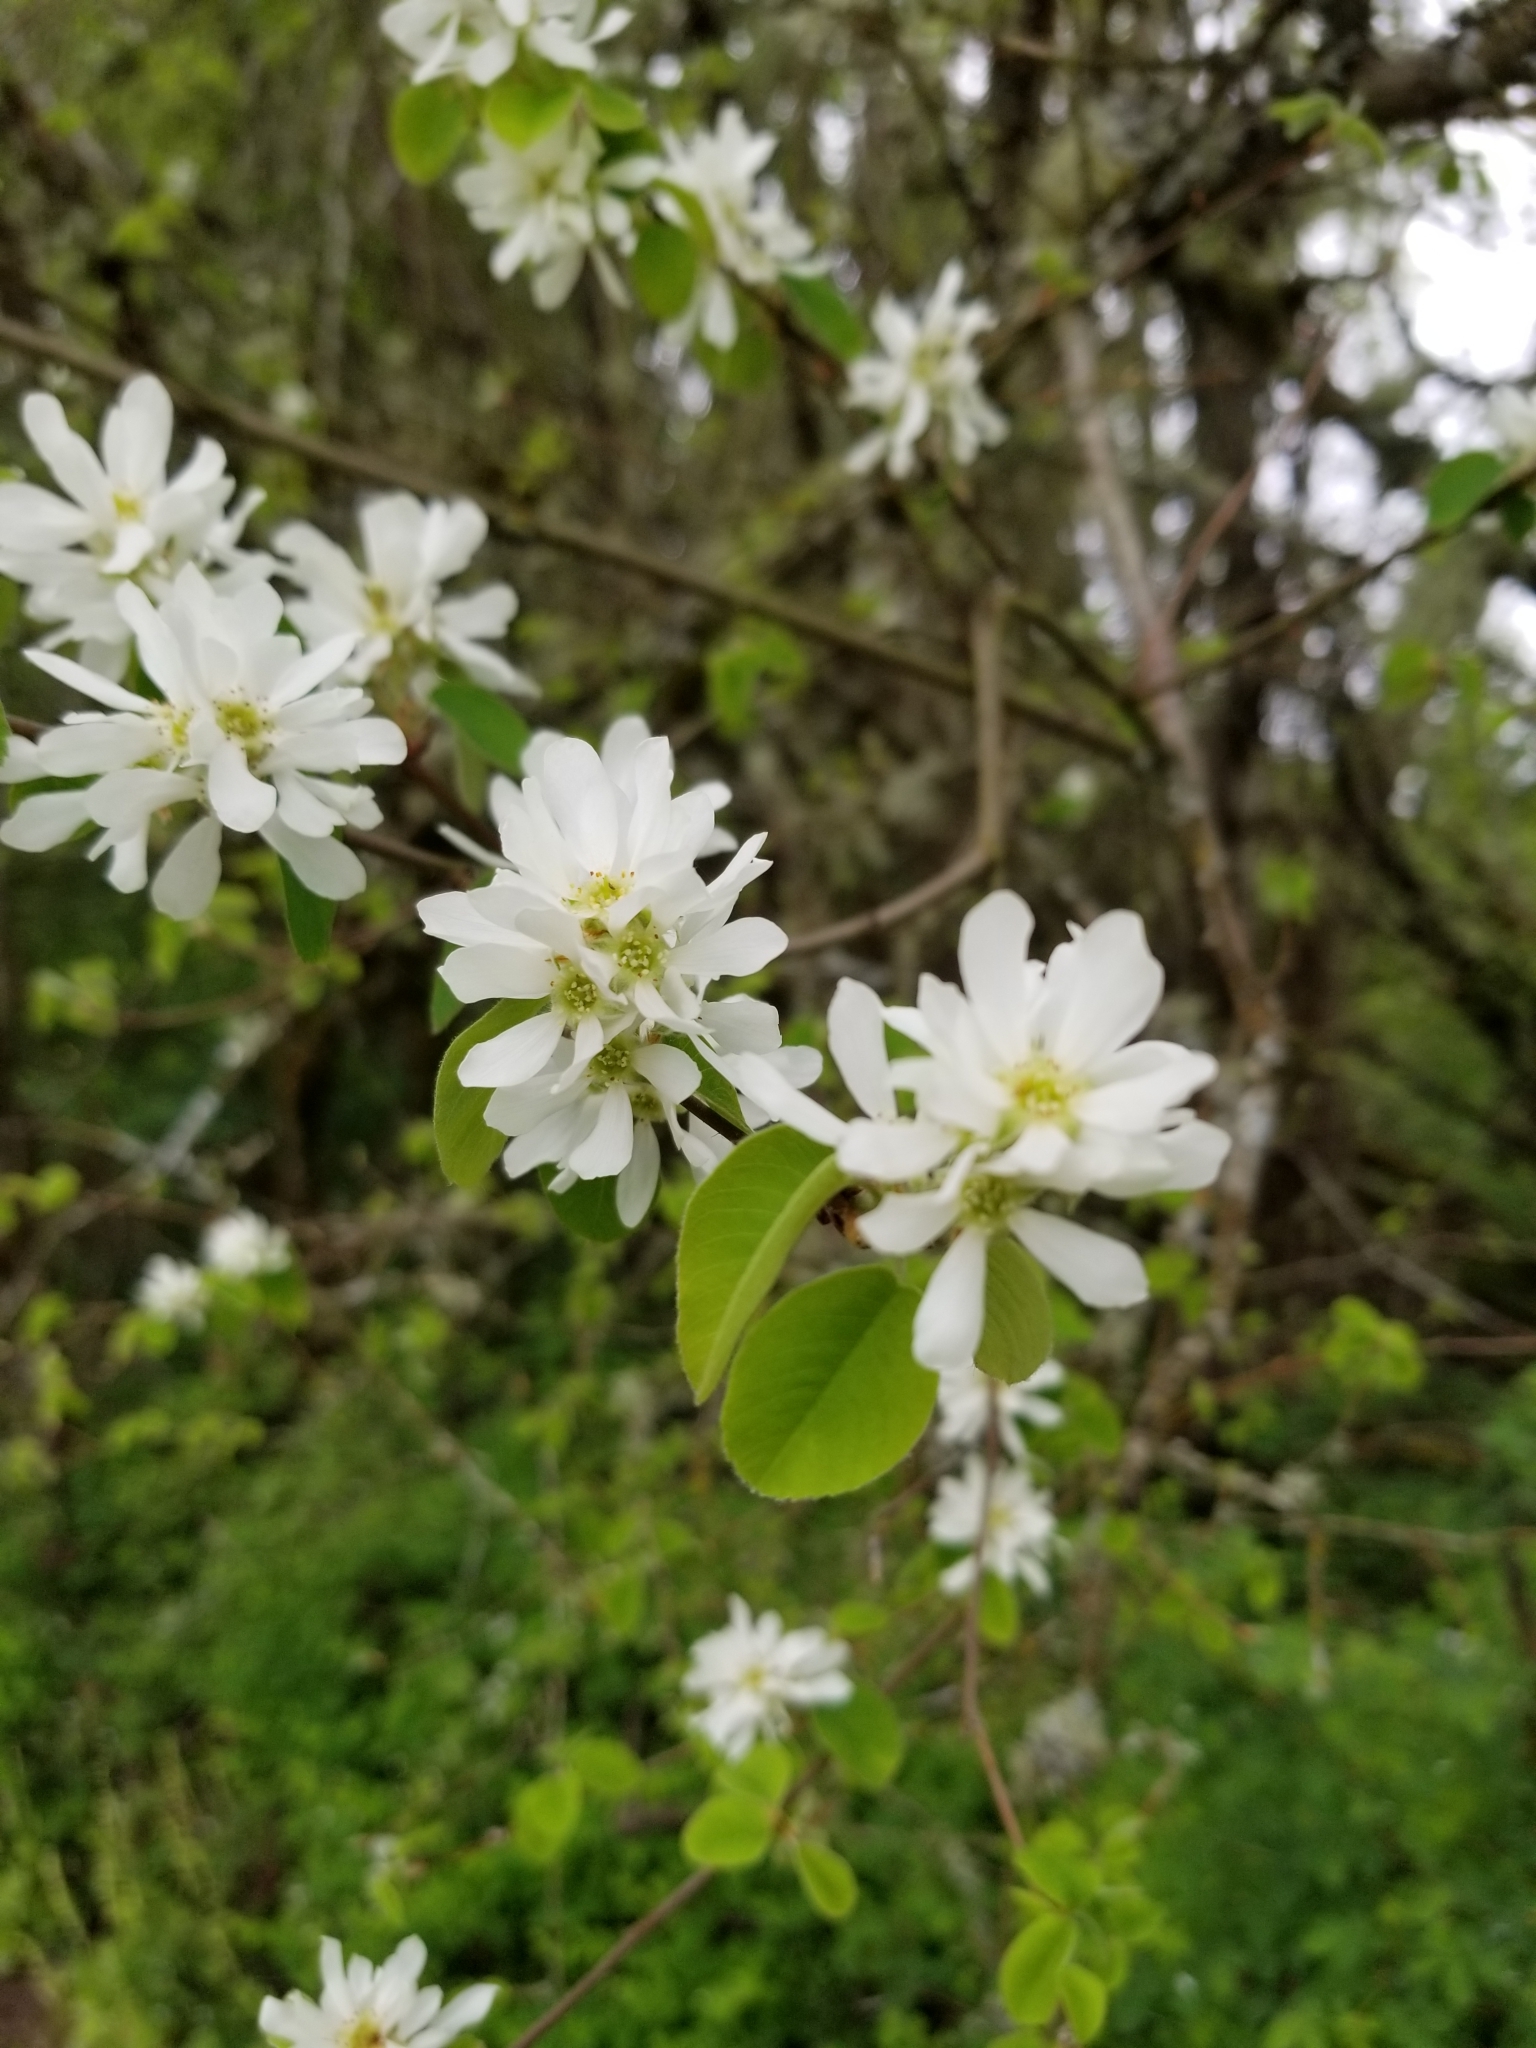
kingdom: Plantae
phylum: Tracheophyta
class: Magnoliopsida
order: Rosales
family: Rosaceae
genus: Amelanchier
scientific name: Amelanchier alnifolia
